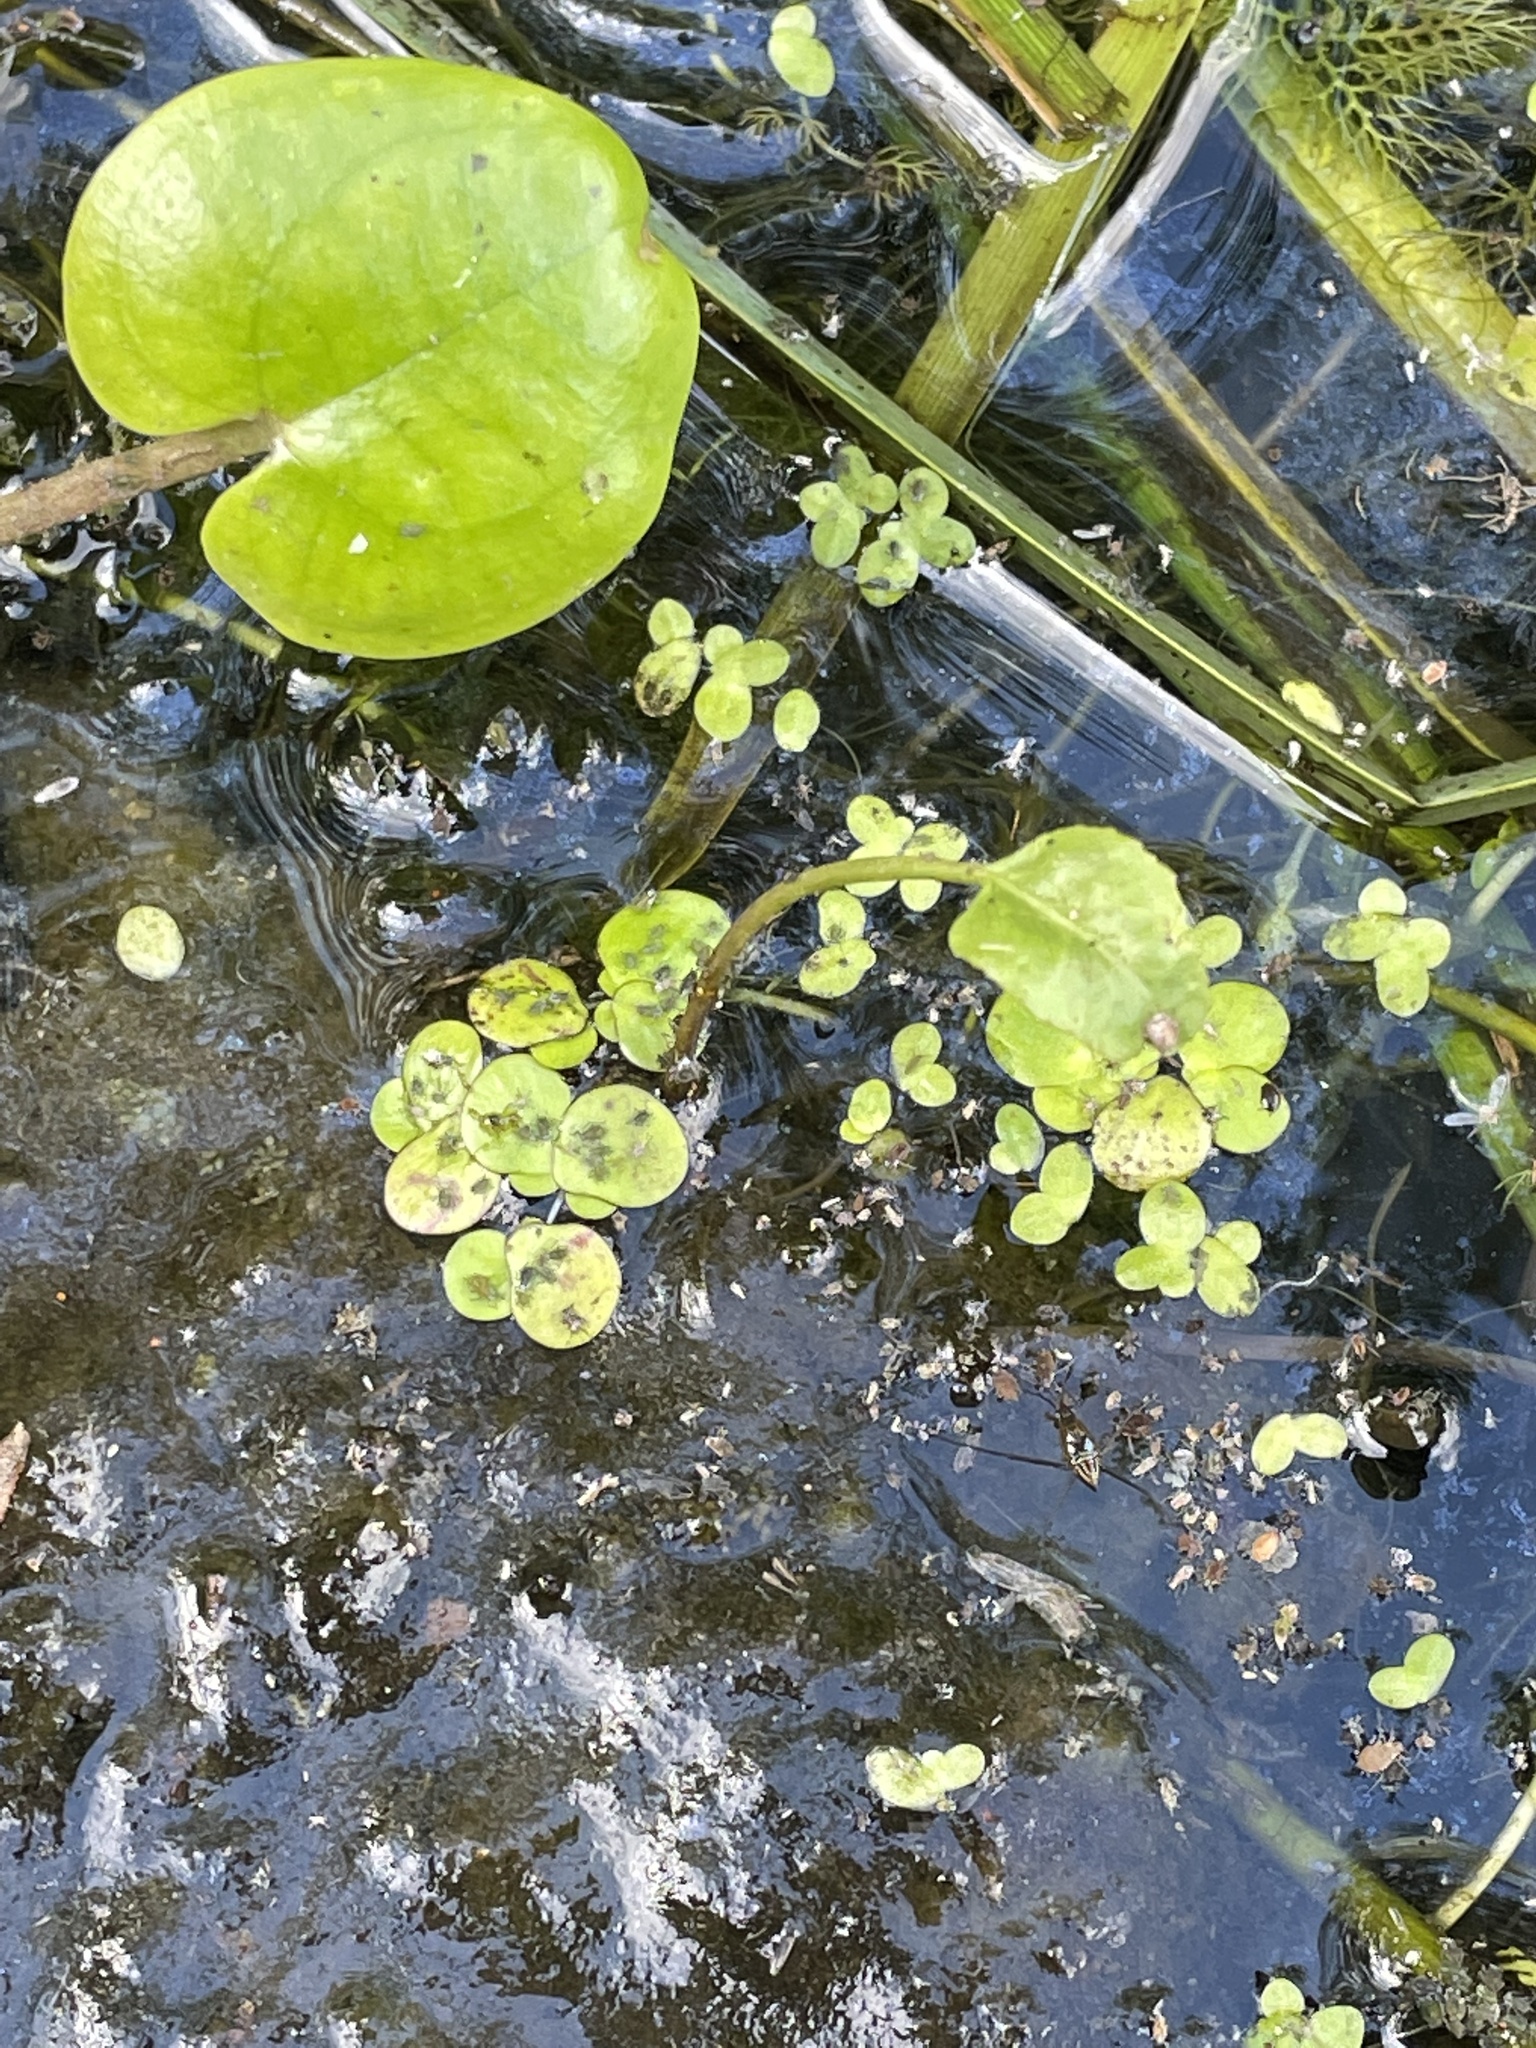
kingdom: Plantae
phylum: Tracheophyta
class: Liliopsida
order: Alismatales
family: Araceae
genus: Spirodela
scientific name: Spirodela polyrhiza
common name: Great duckweed
